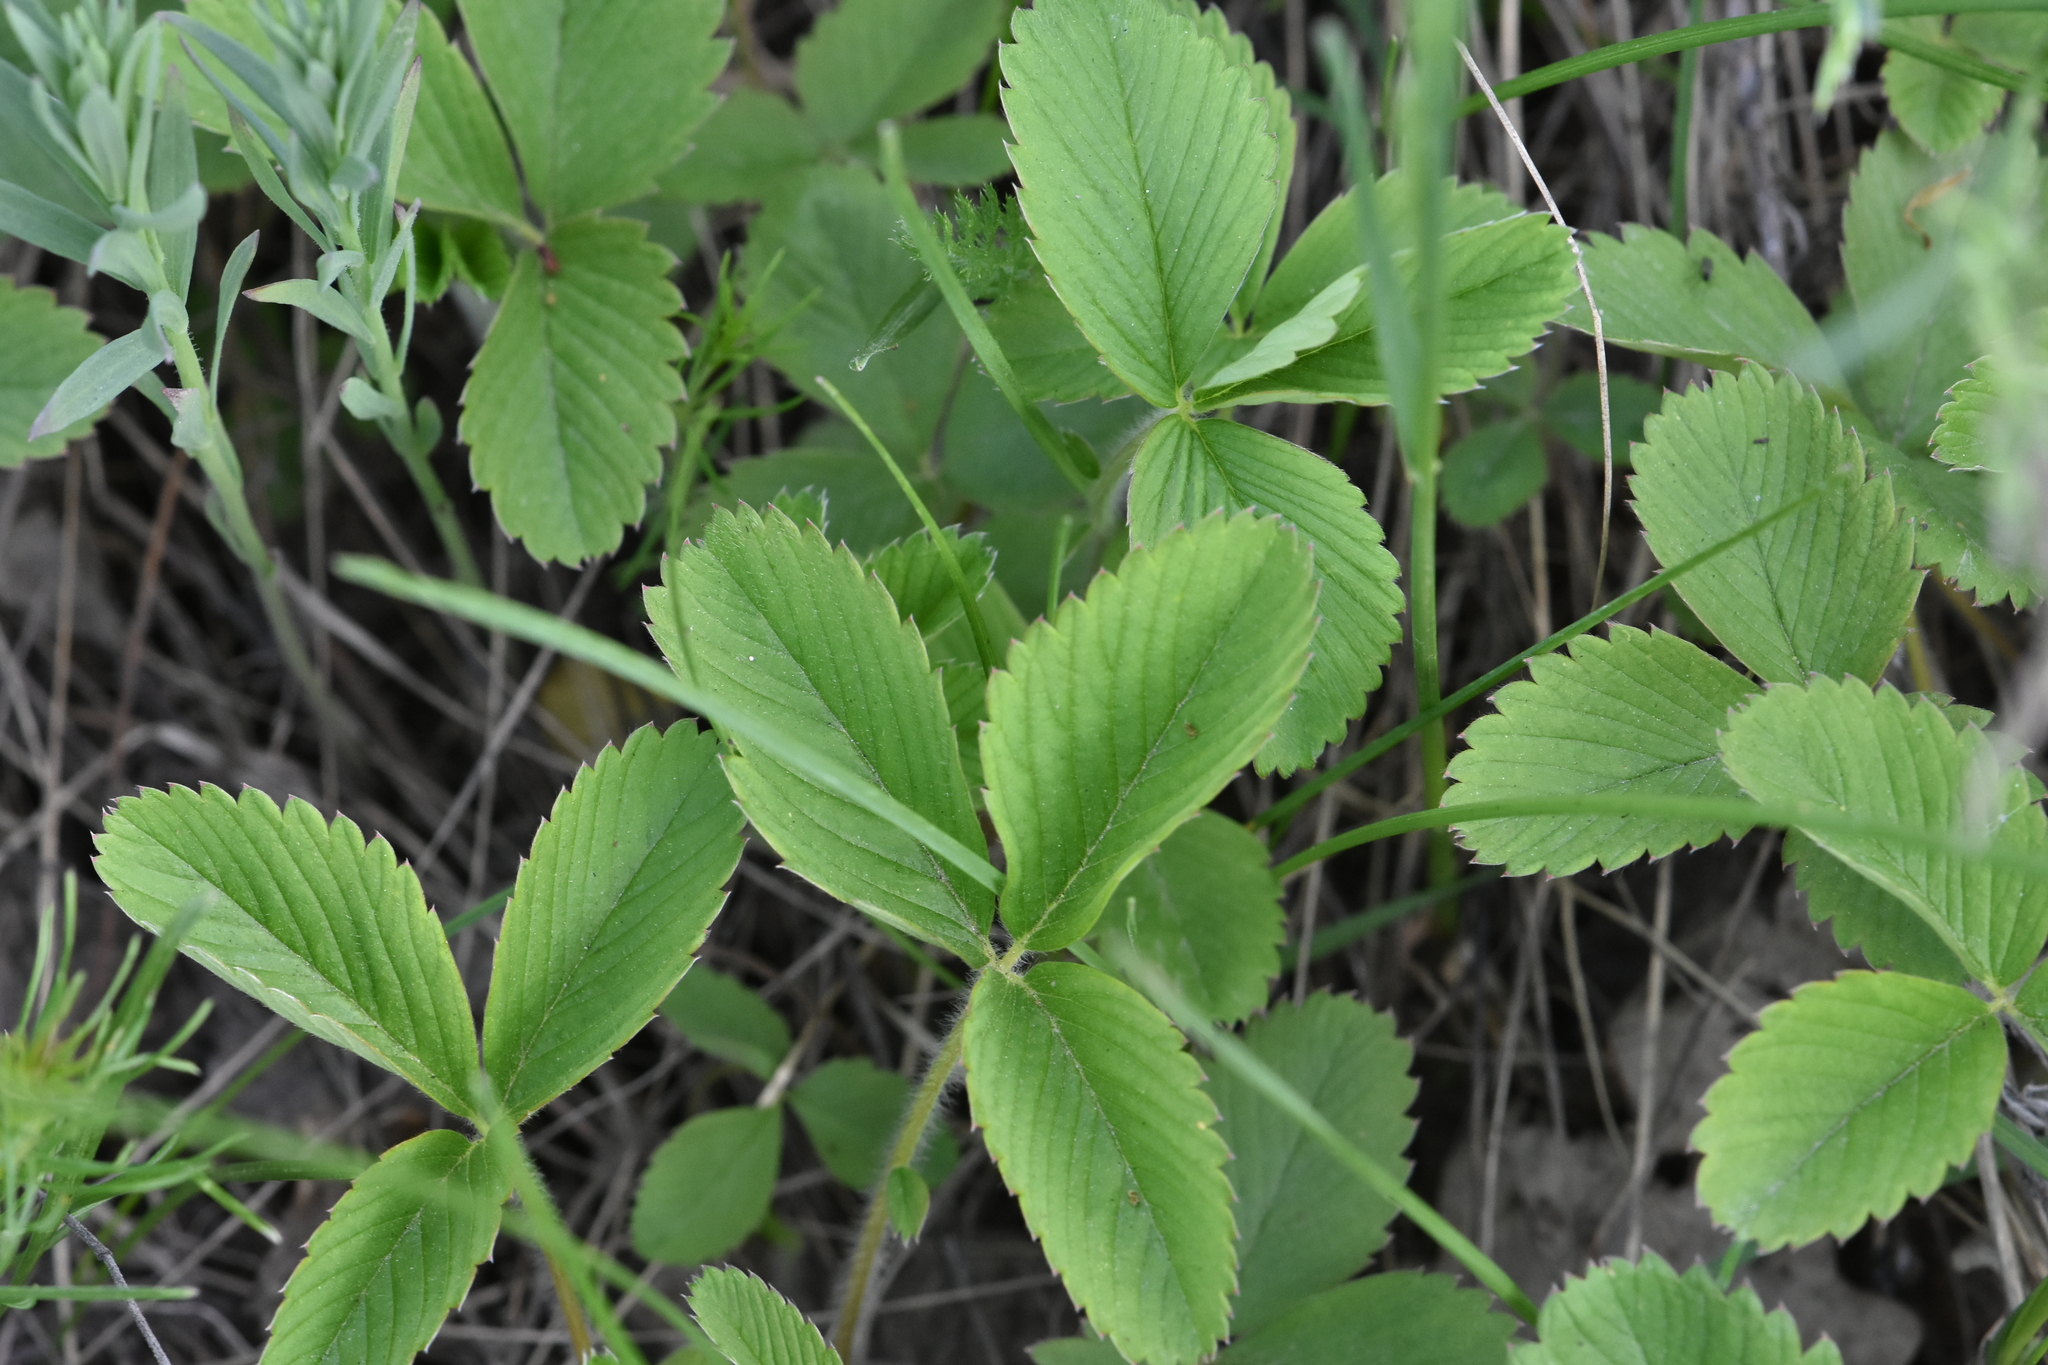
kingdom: Plantae
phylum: Tracheophyta
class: Magnoliopsida
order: Rosales
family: Rosaceae
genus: Fragaria
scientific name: Fragaria viridis
